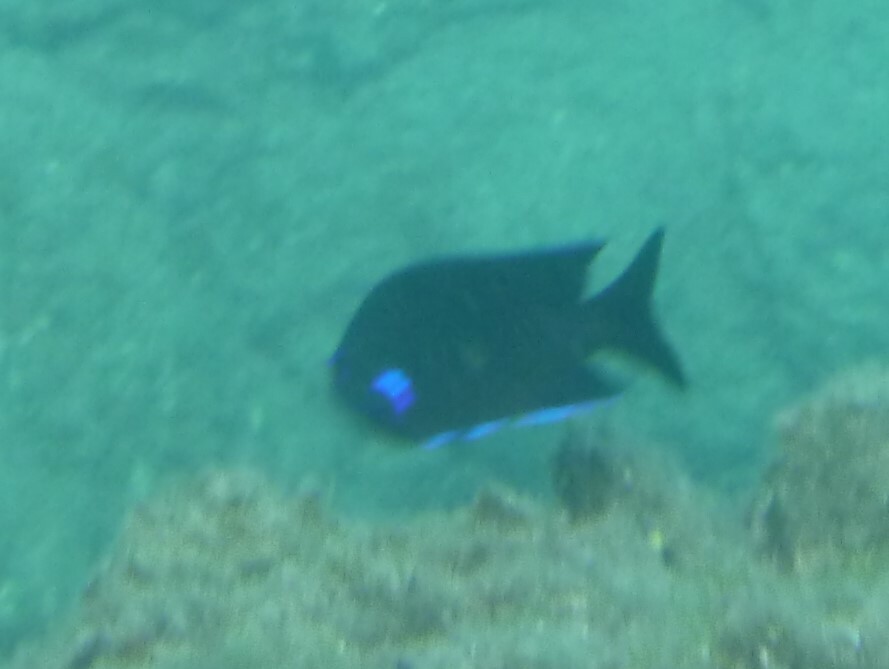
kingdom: Animalia
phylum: Chordata
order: Perciformes
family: Pomacentridae
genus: Similiparma
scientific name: Similiparma lurida
